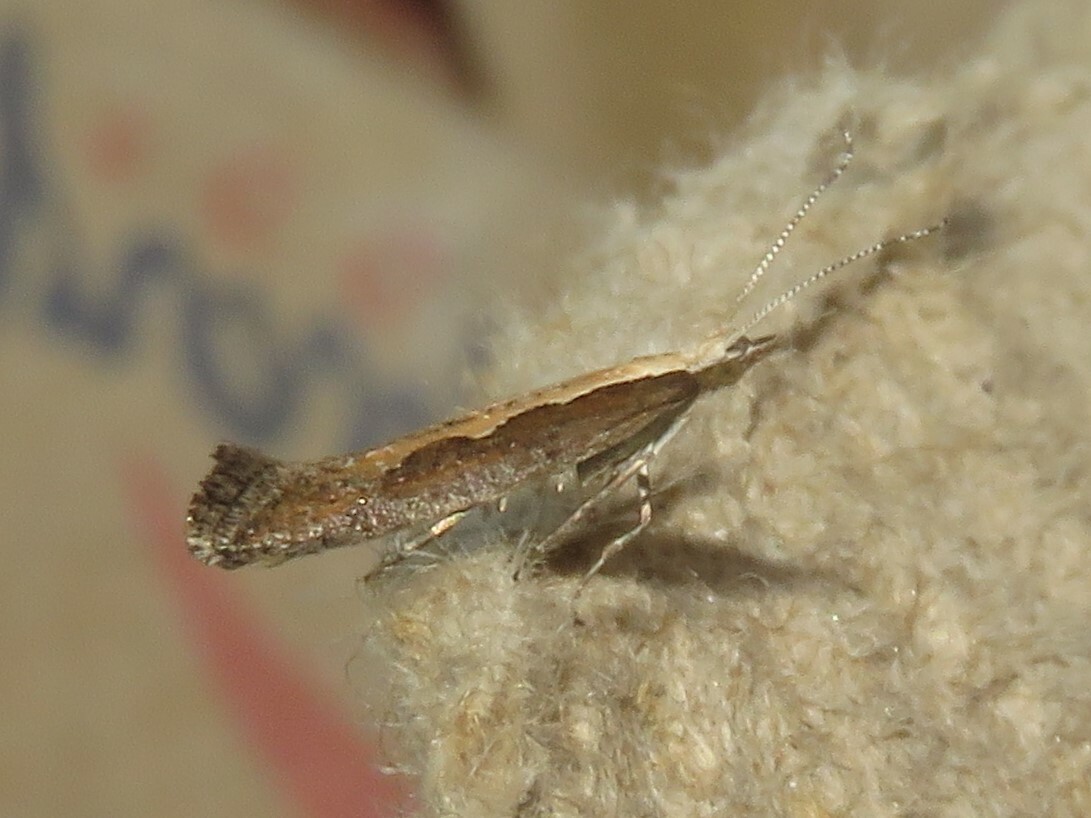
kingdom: Animalia
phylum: Arthropoda
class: Insecta
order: Lepidoptera
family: Plutellidae
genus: Plutella
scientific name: Plutella xylostella
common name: Diamond-back moth
